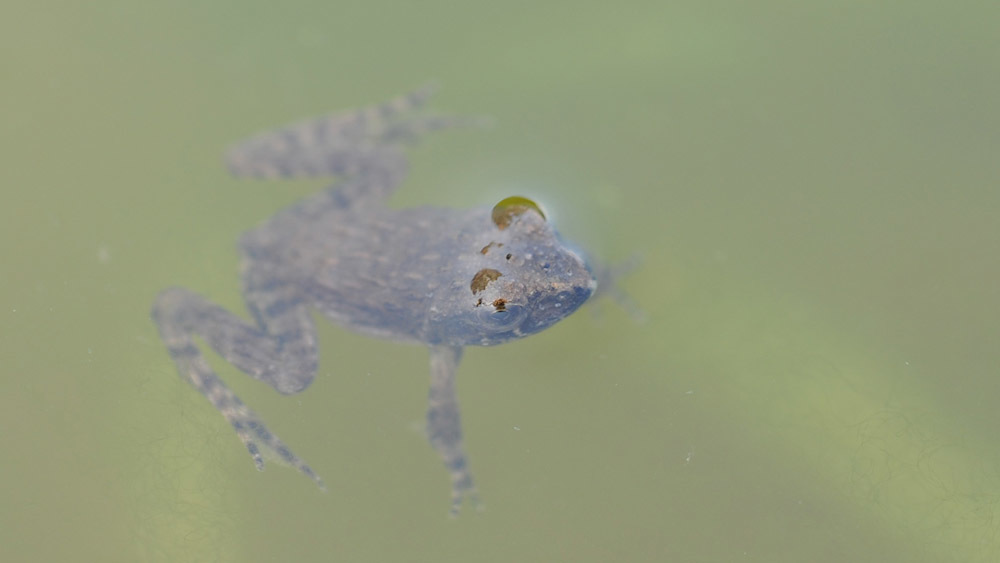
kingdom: Animalia
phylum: Chordata
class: Amphibia
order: Anura
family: Ranidae
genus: Glandirana
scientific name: Glandirana emeljanovi
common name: Northeast china rough-skinned frog
